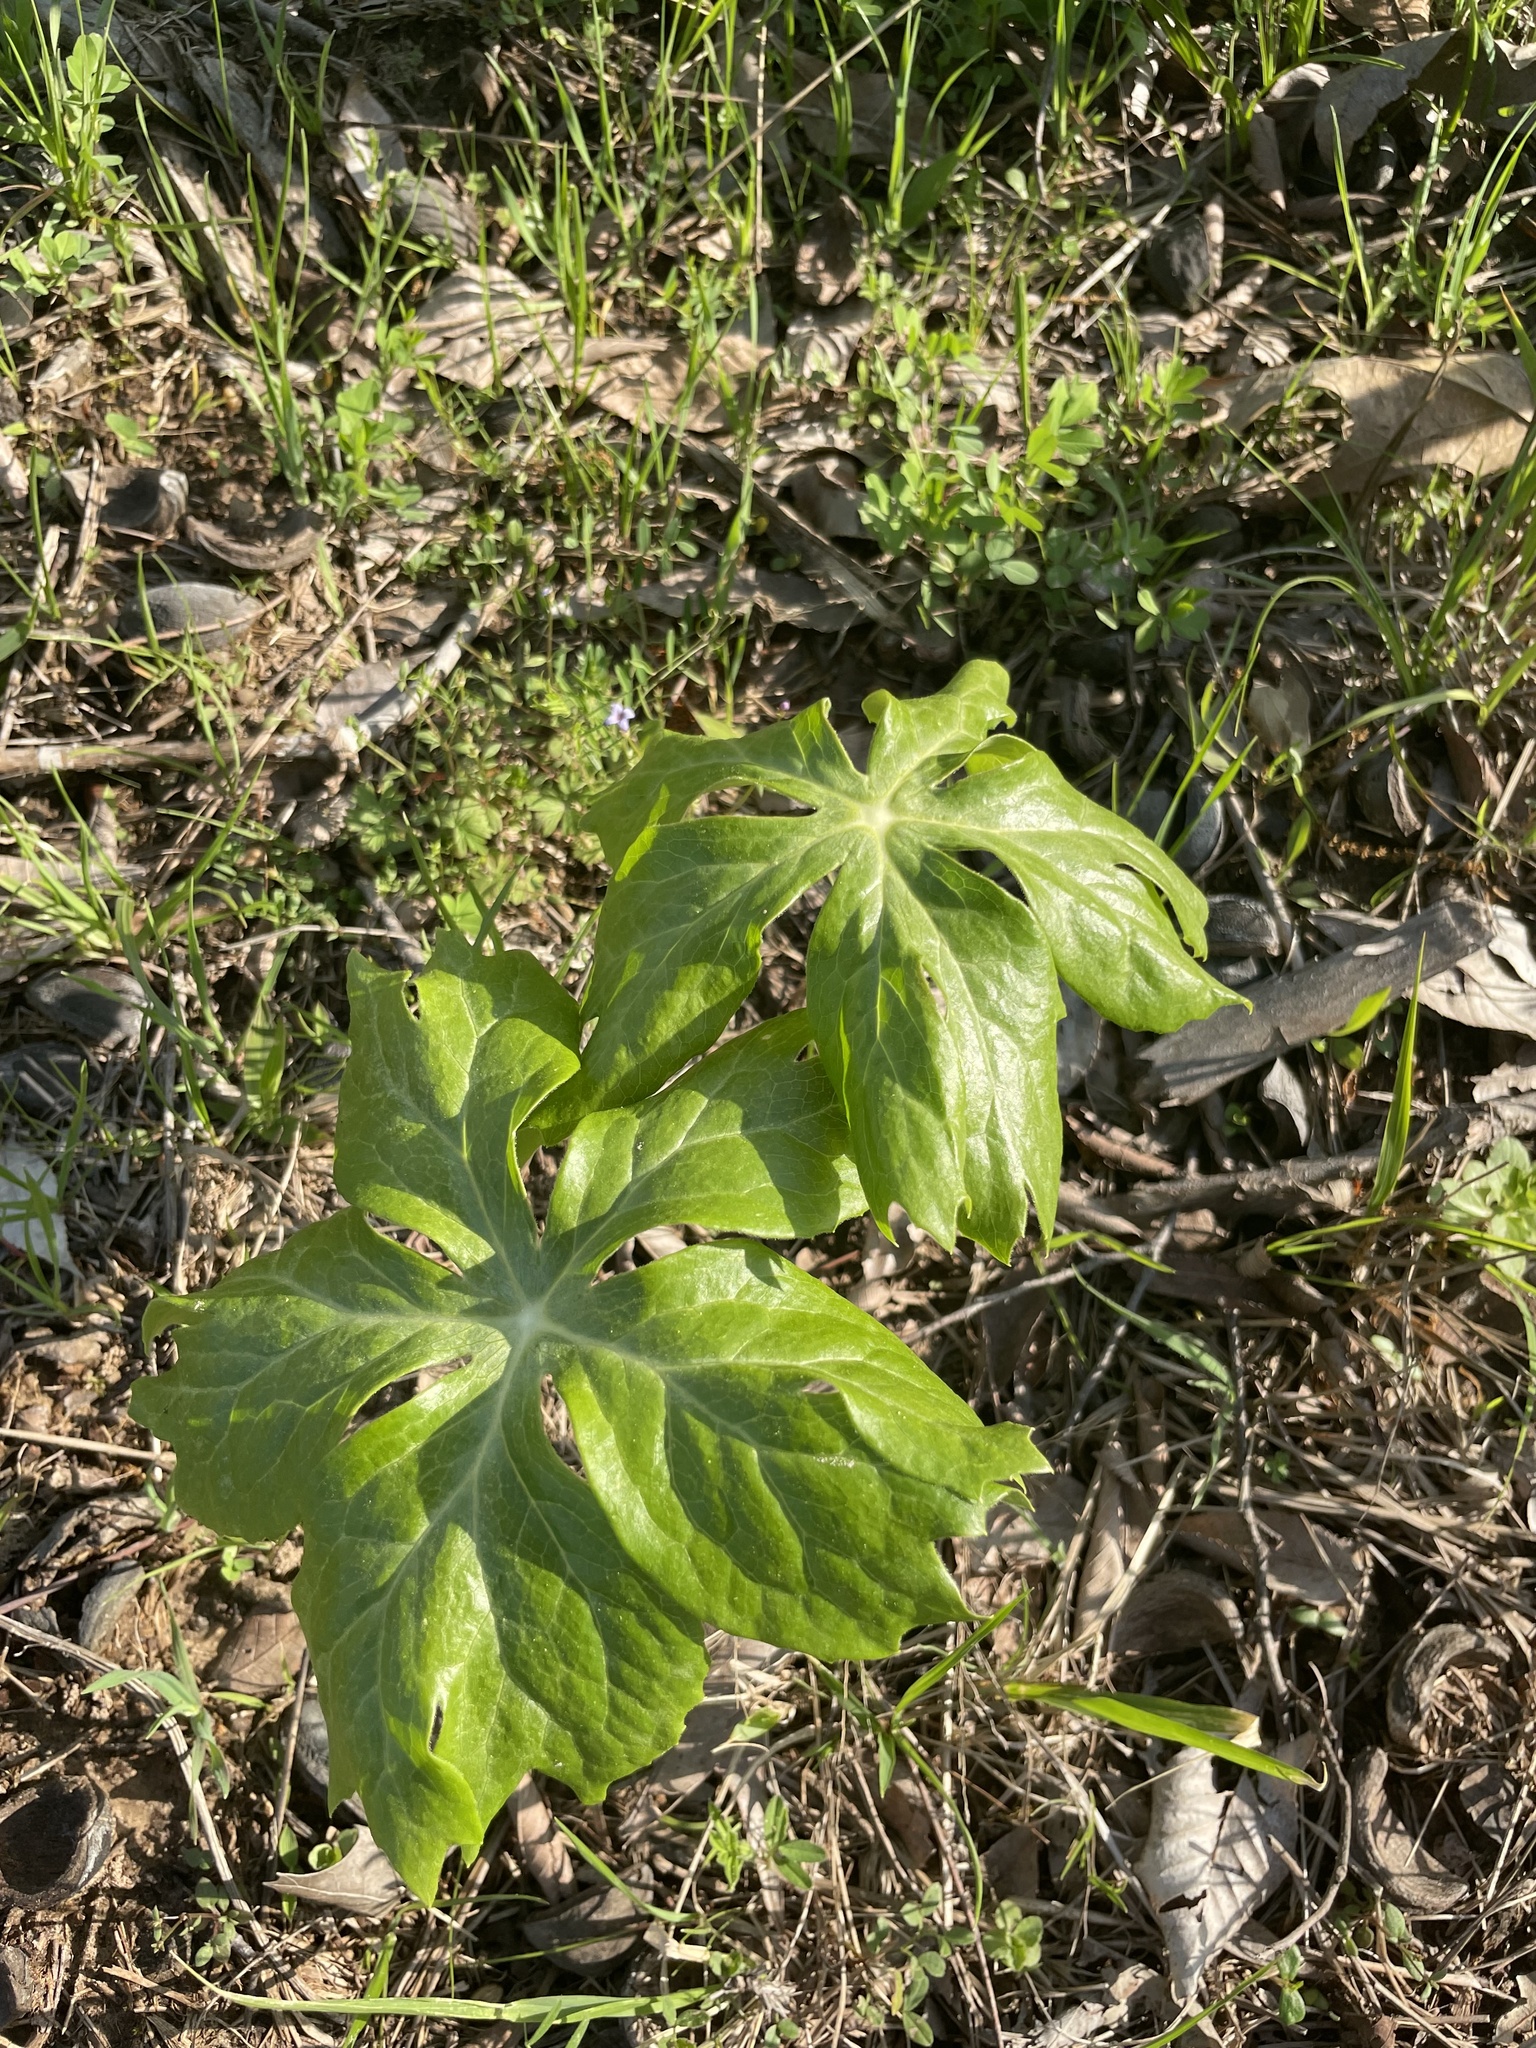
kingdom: Plantae
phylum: Tracheophyta
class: Magnoliopsida
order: Ranunculales
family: Berberidaceae
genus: Podophyllum
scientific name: Podophyllum peltatum
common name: Wild mandrake
